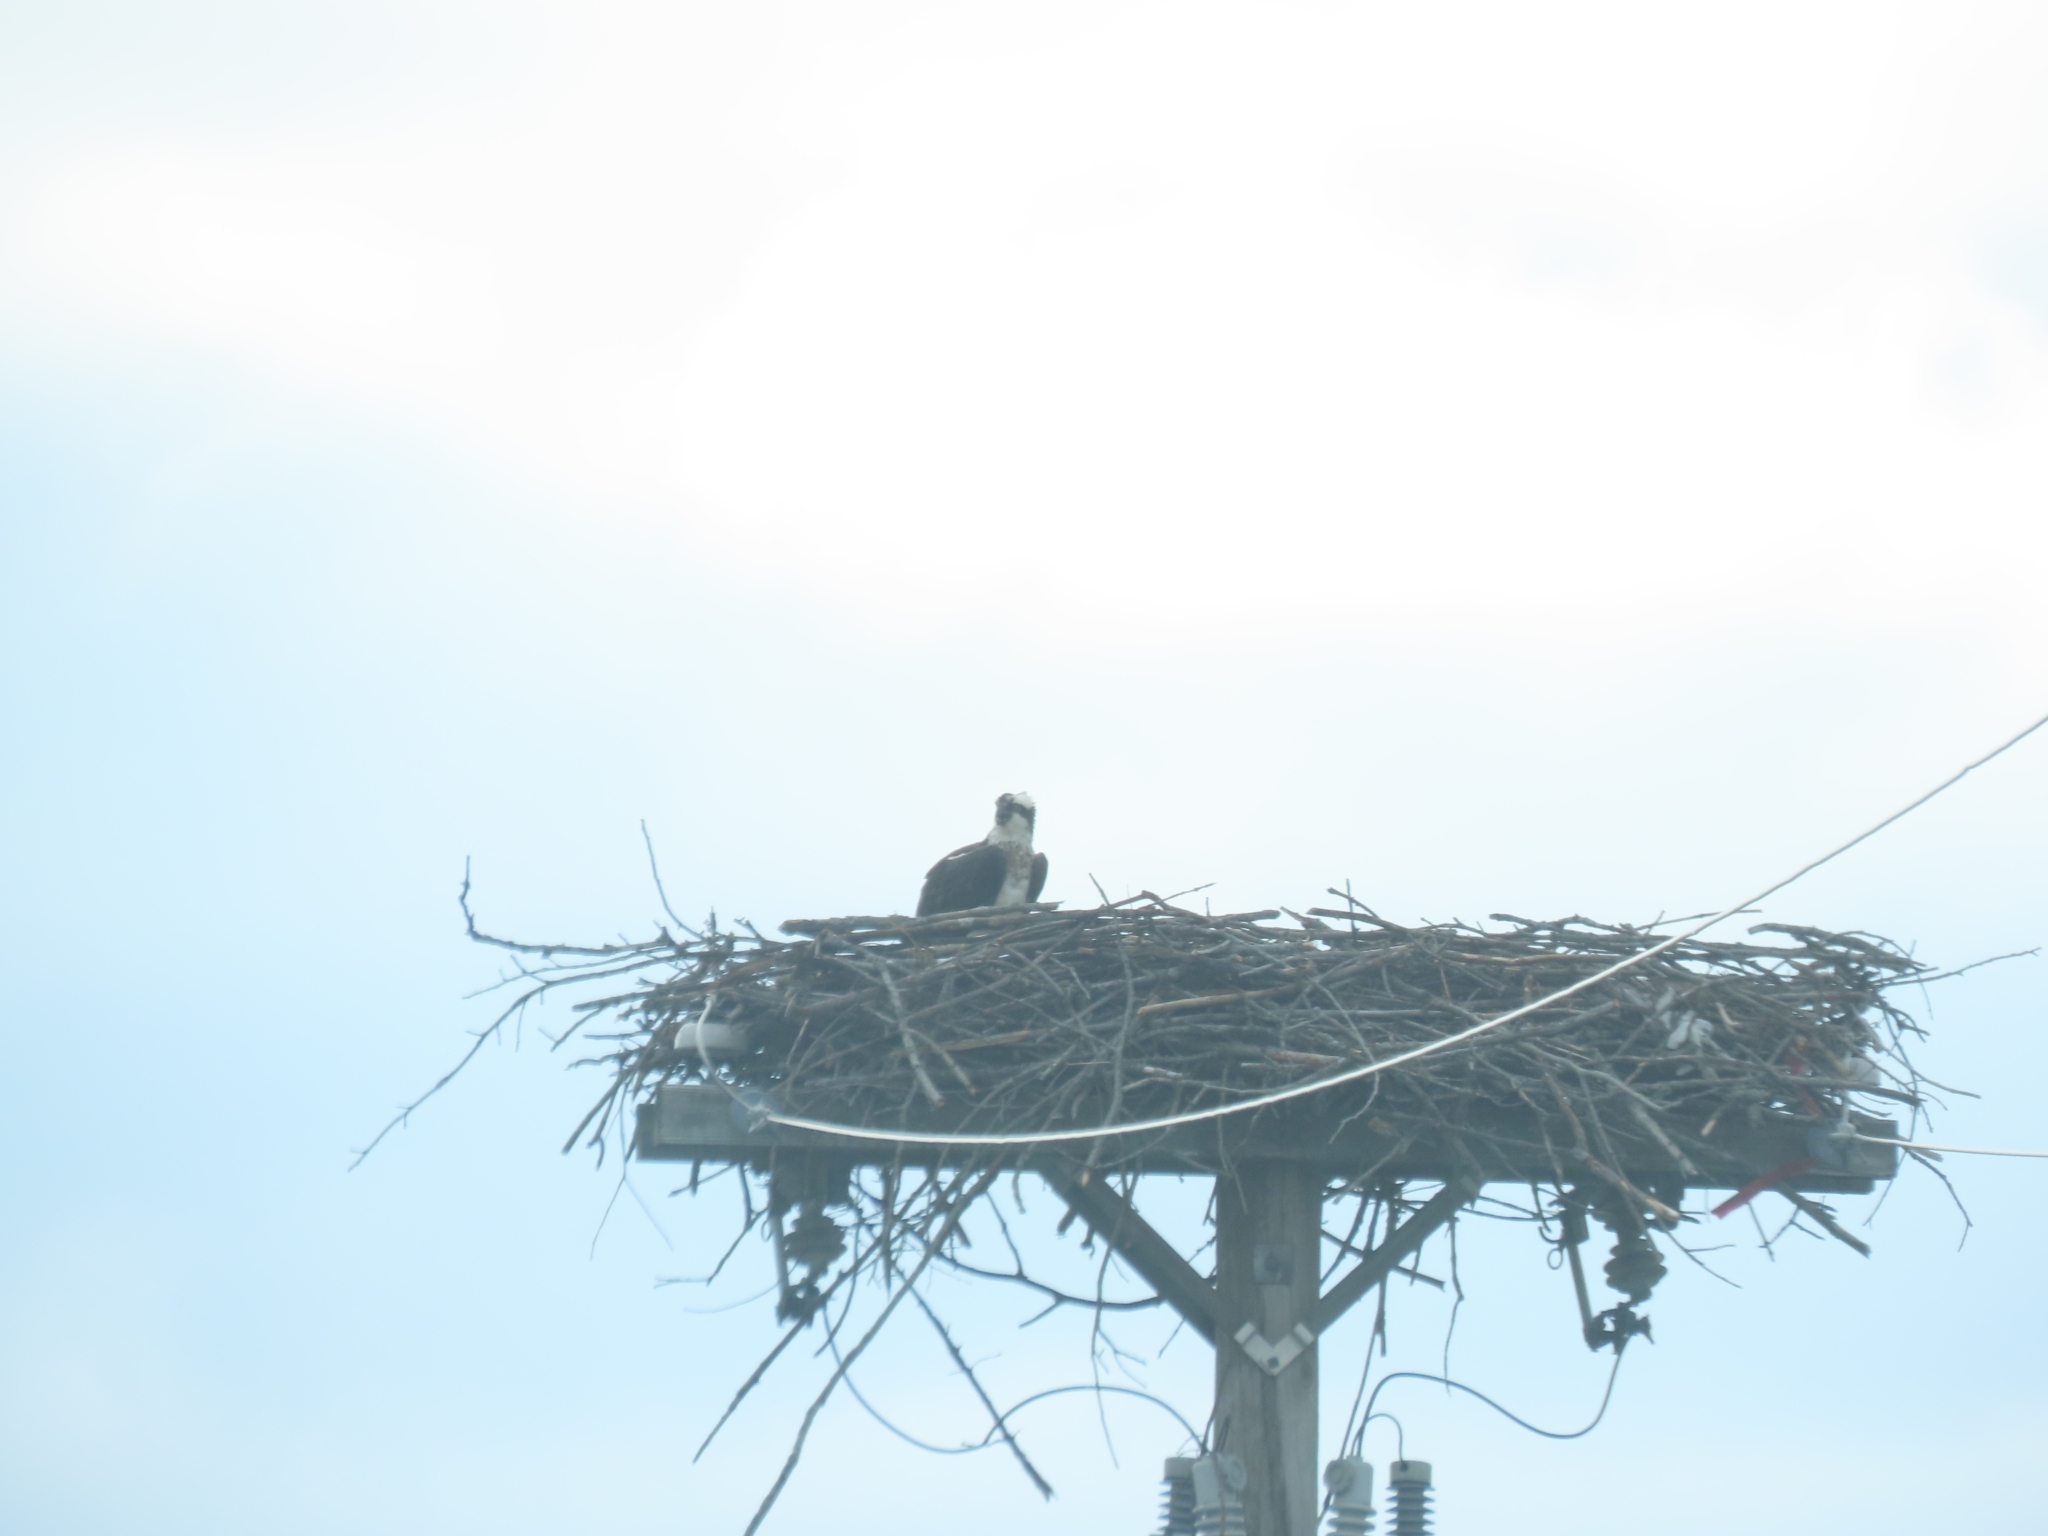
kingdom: Animalia
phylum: Chordata
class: Aves
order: Accipitriformes
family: Pandionidae
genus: Pandion
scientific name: Pandion haliaetus
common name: Osprey
